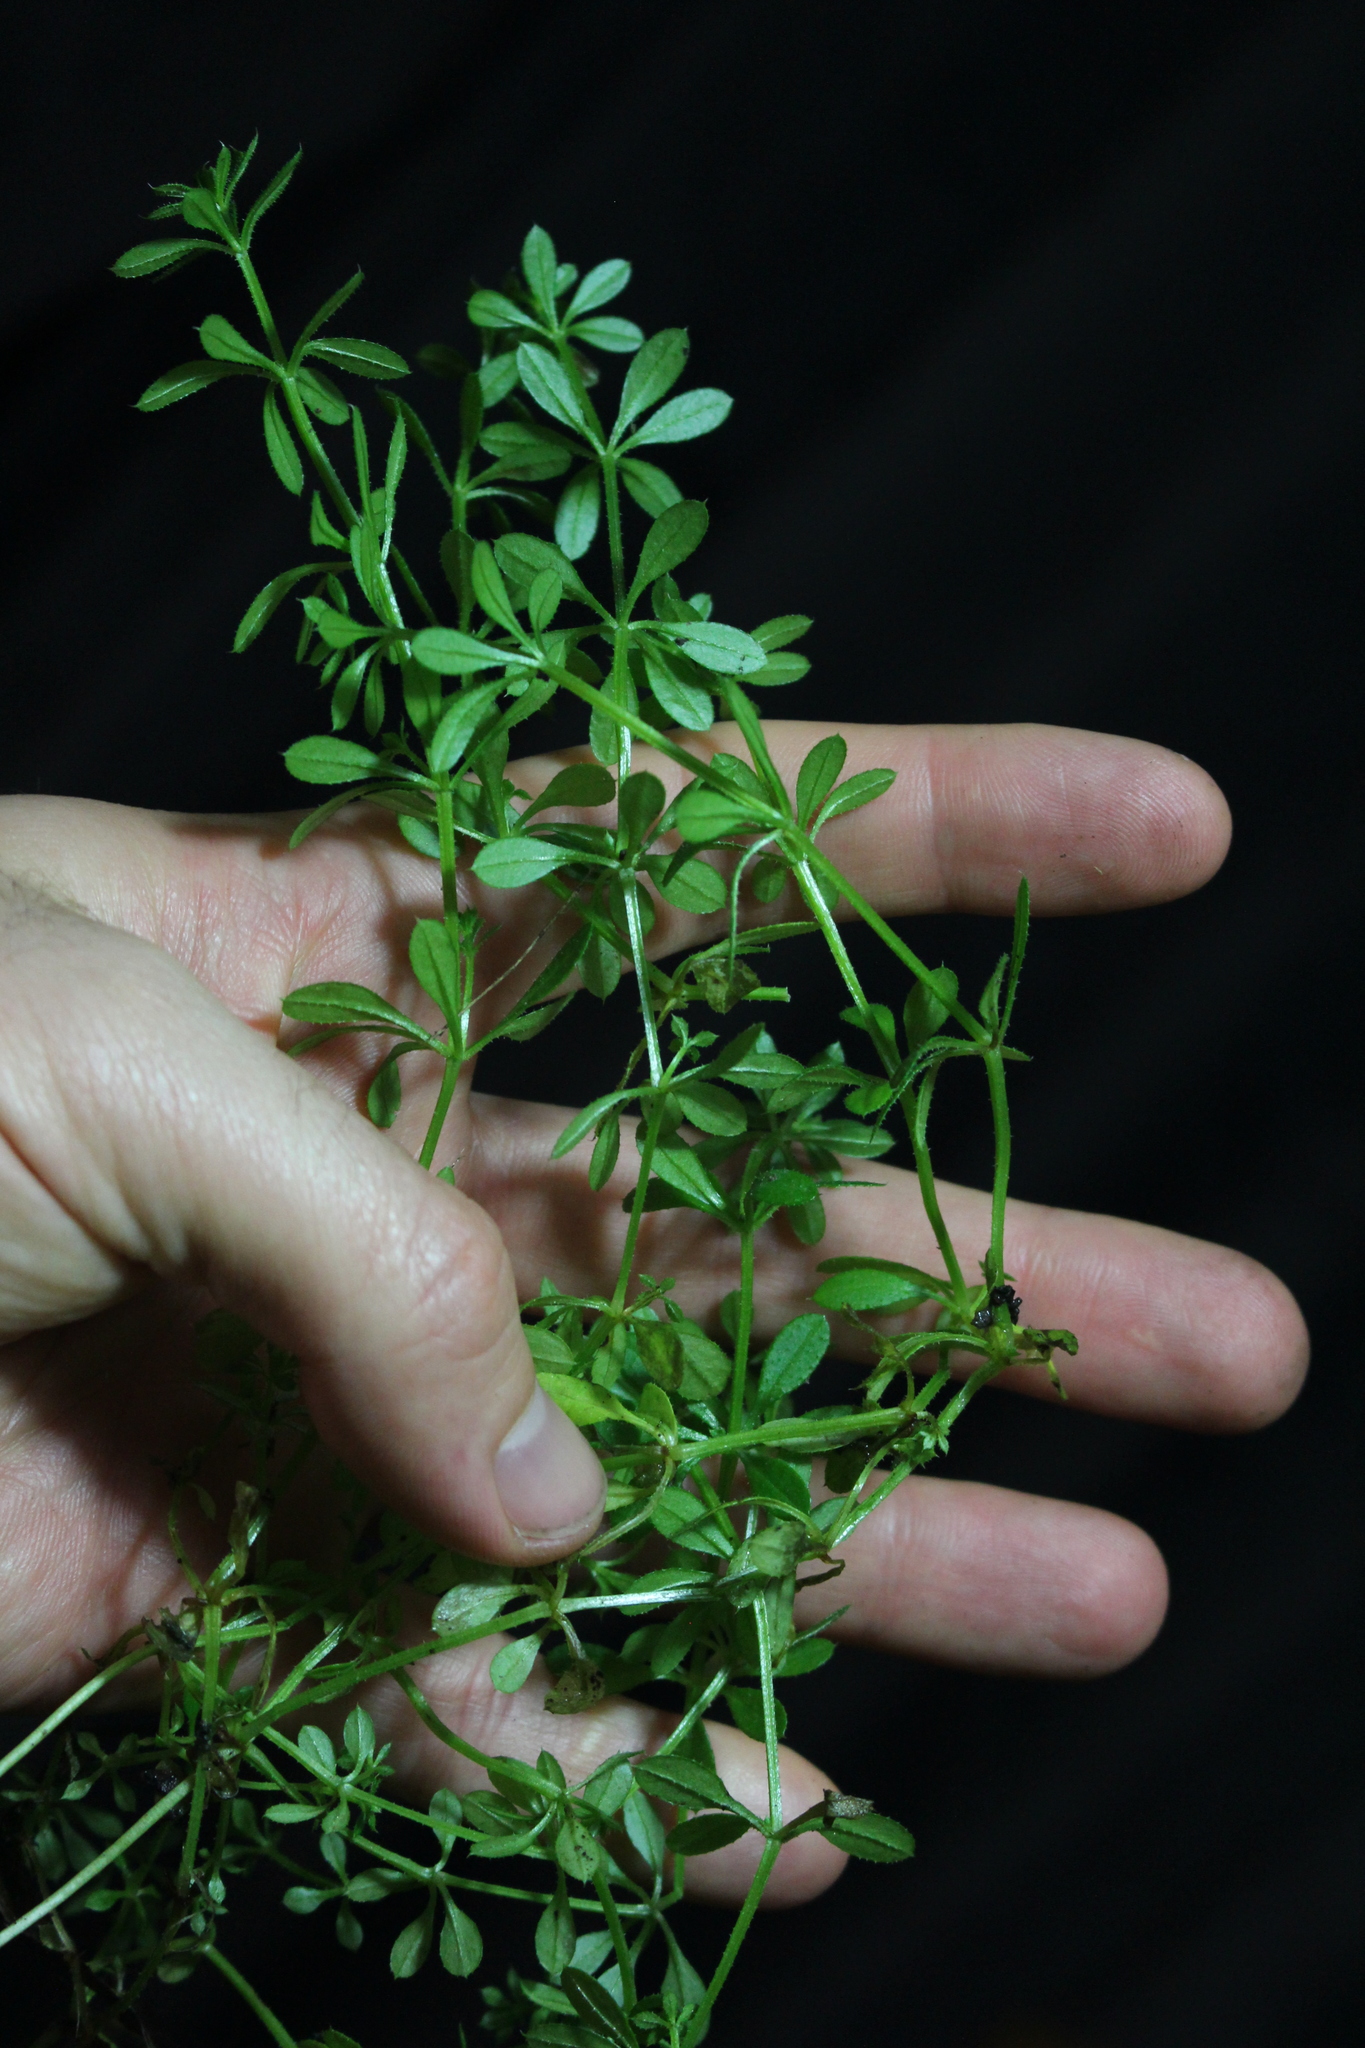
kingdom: Plantae
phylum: Tracheophyta
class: Magnoliopsida
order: Gentianales
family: Rubiaceae
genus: Galium
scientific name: Galium aparine
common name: Cleavers
